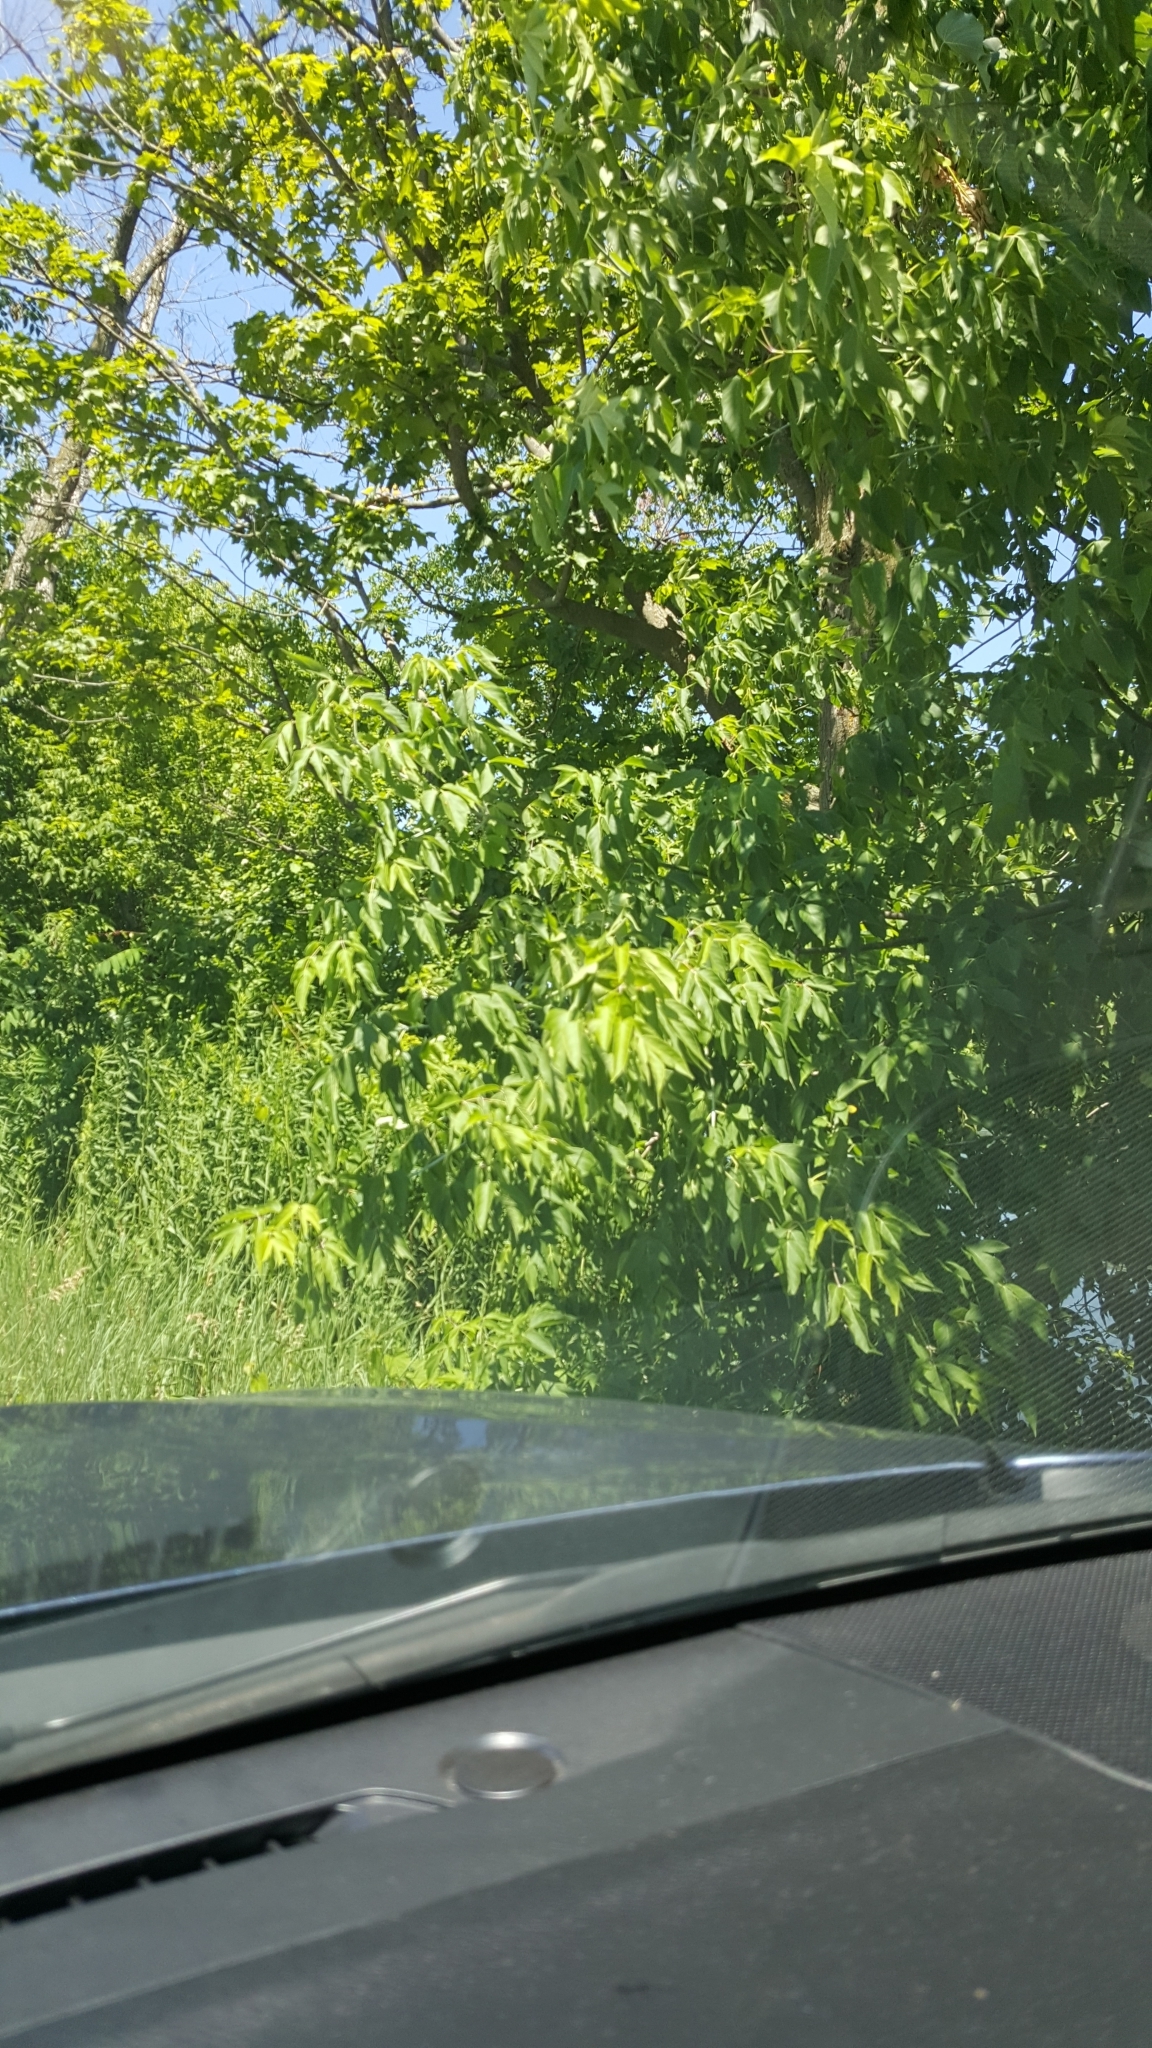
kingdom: Plantae
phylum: Tracheophyta
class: Magnoliopsida
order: Sapindales
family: Sapindaceae
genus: Acer
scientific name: Acer negundo
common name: Ashleaf maple
